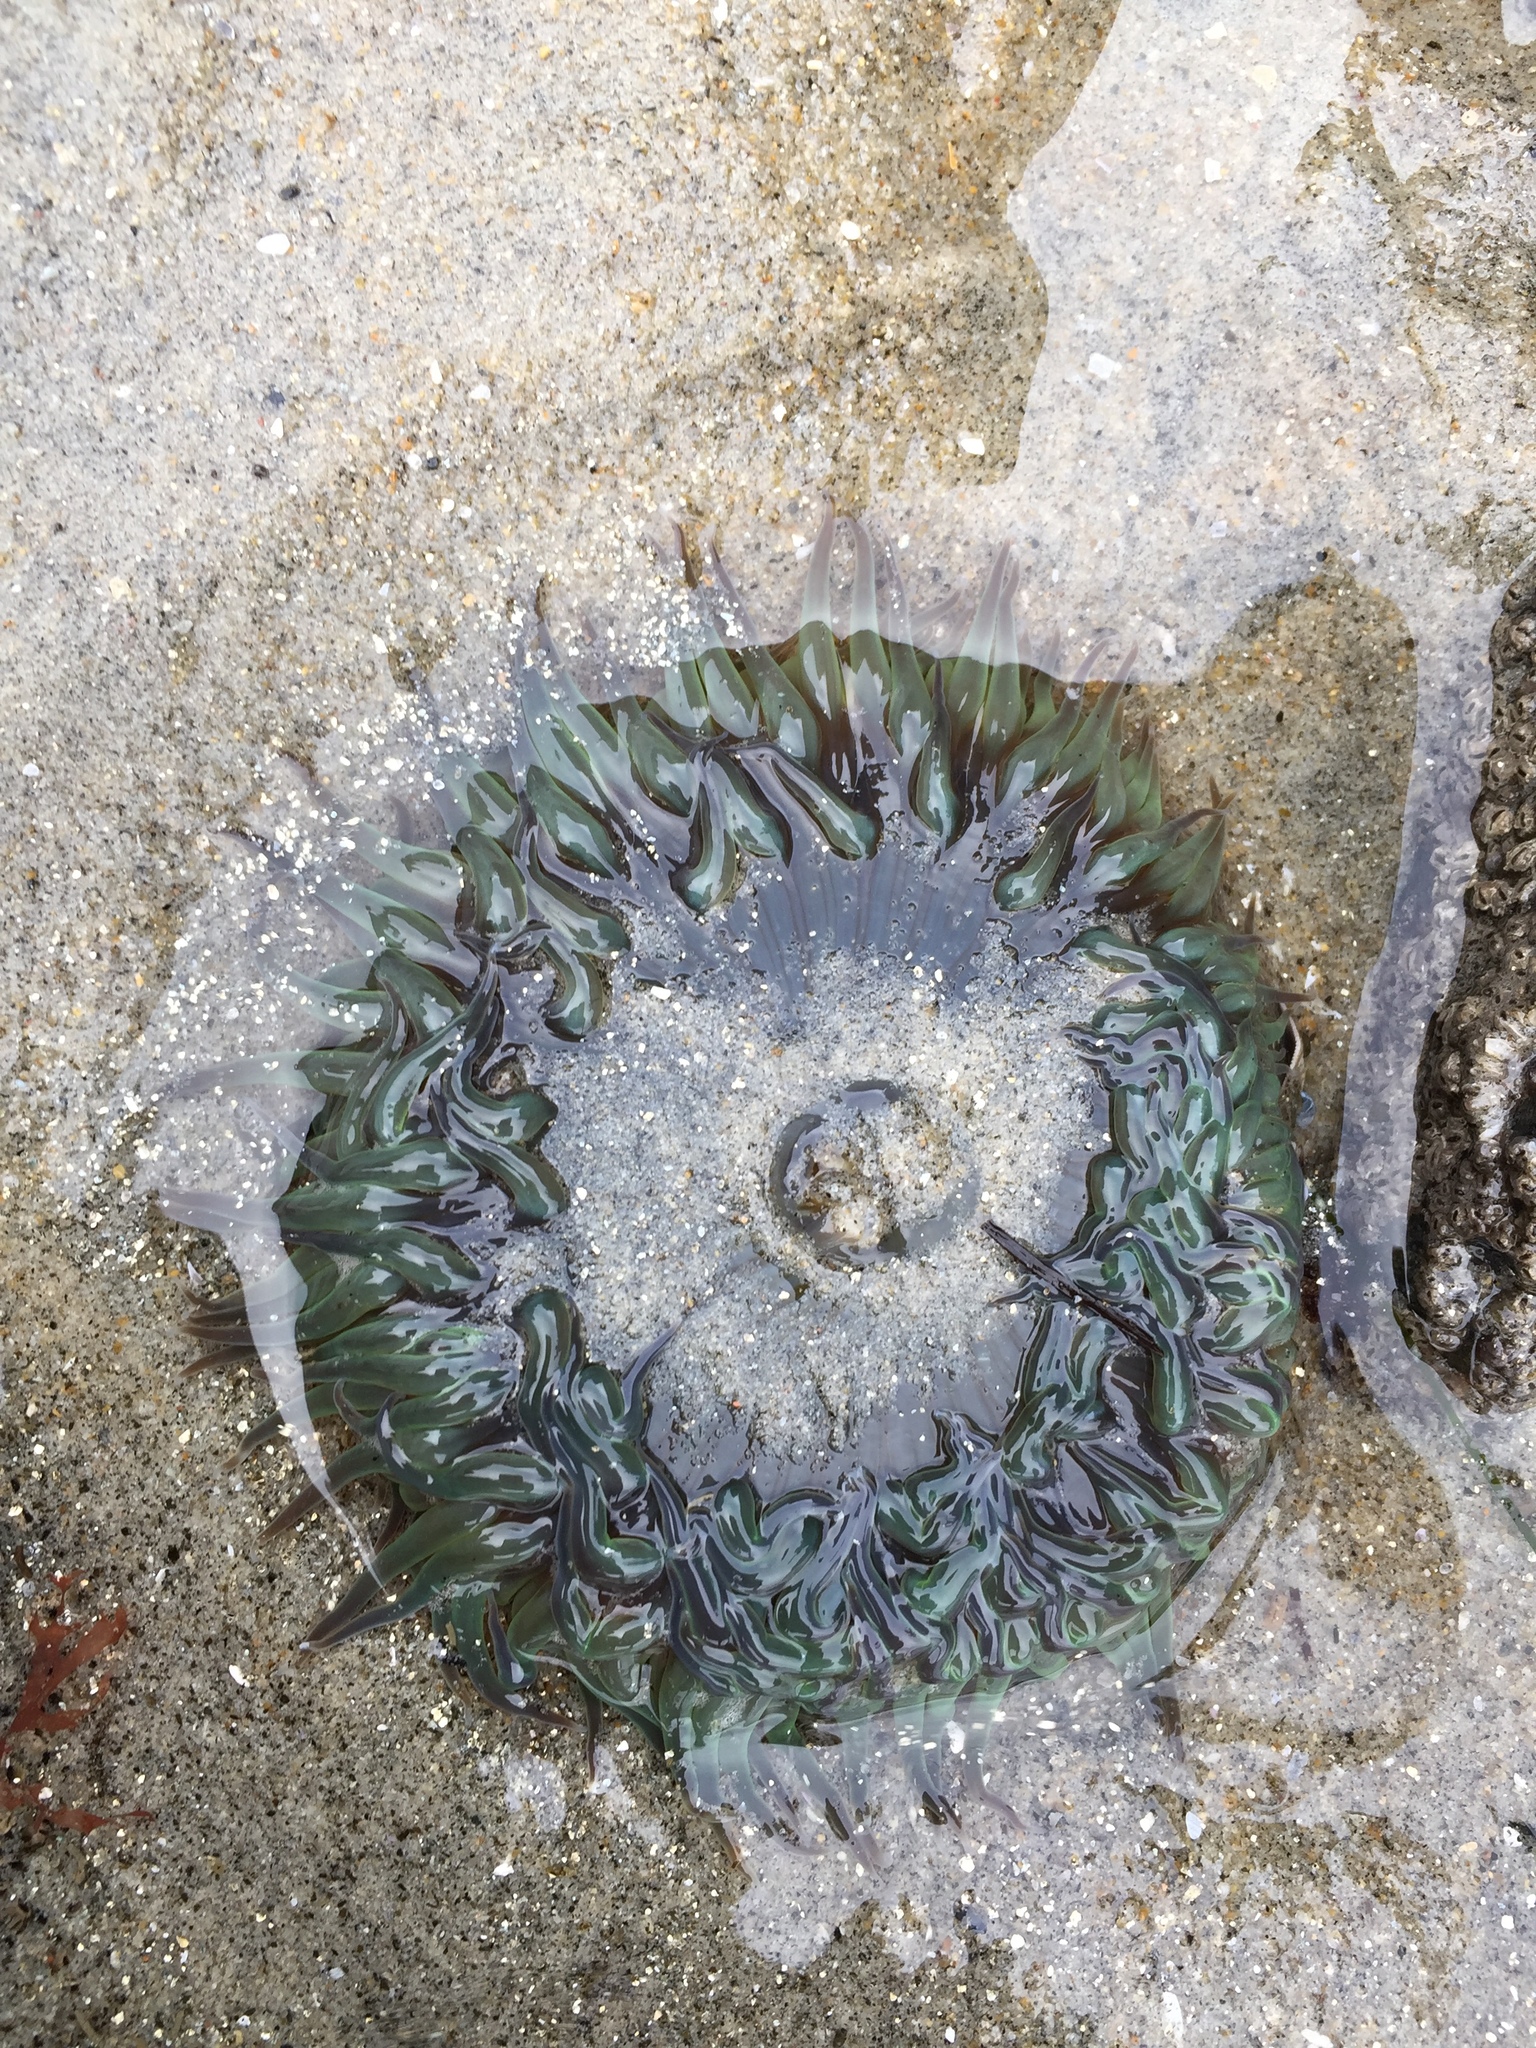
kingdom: Animalia
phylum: Cnidaria
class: Anthozoa
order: Actiniaria
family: Actiniidae
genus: Anthopleura
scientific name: Anthopleura sola
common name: Sun anemone
